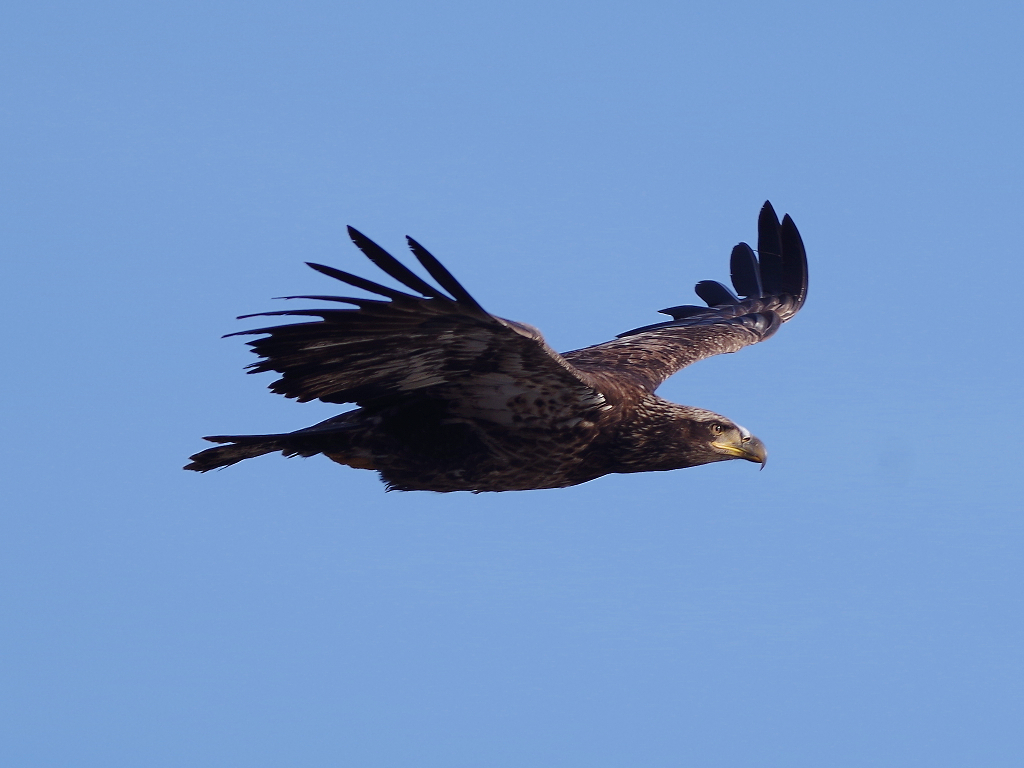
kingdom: Animalia
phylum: Chordata
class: Aves
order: Accipitriformes
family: Accipitridae
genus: Haliaeetus
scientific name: Haliaeetus leucocephalus
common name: Bald eagle
